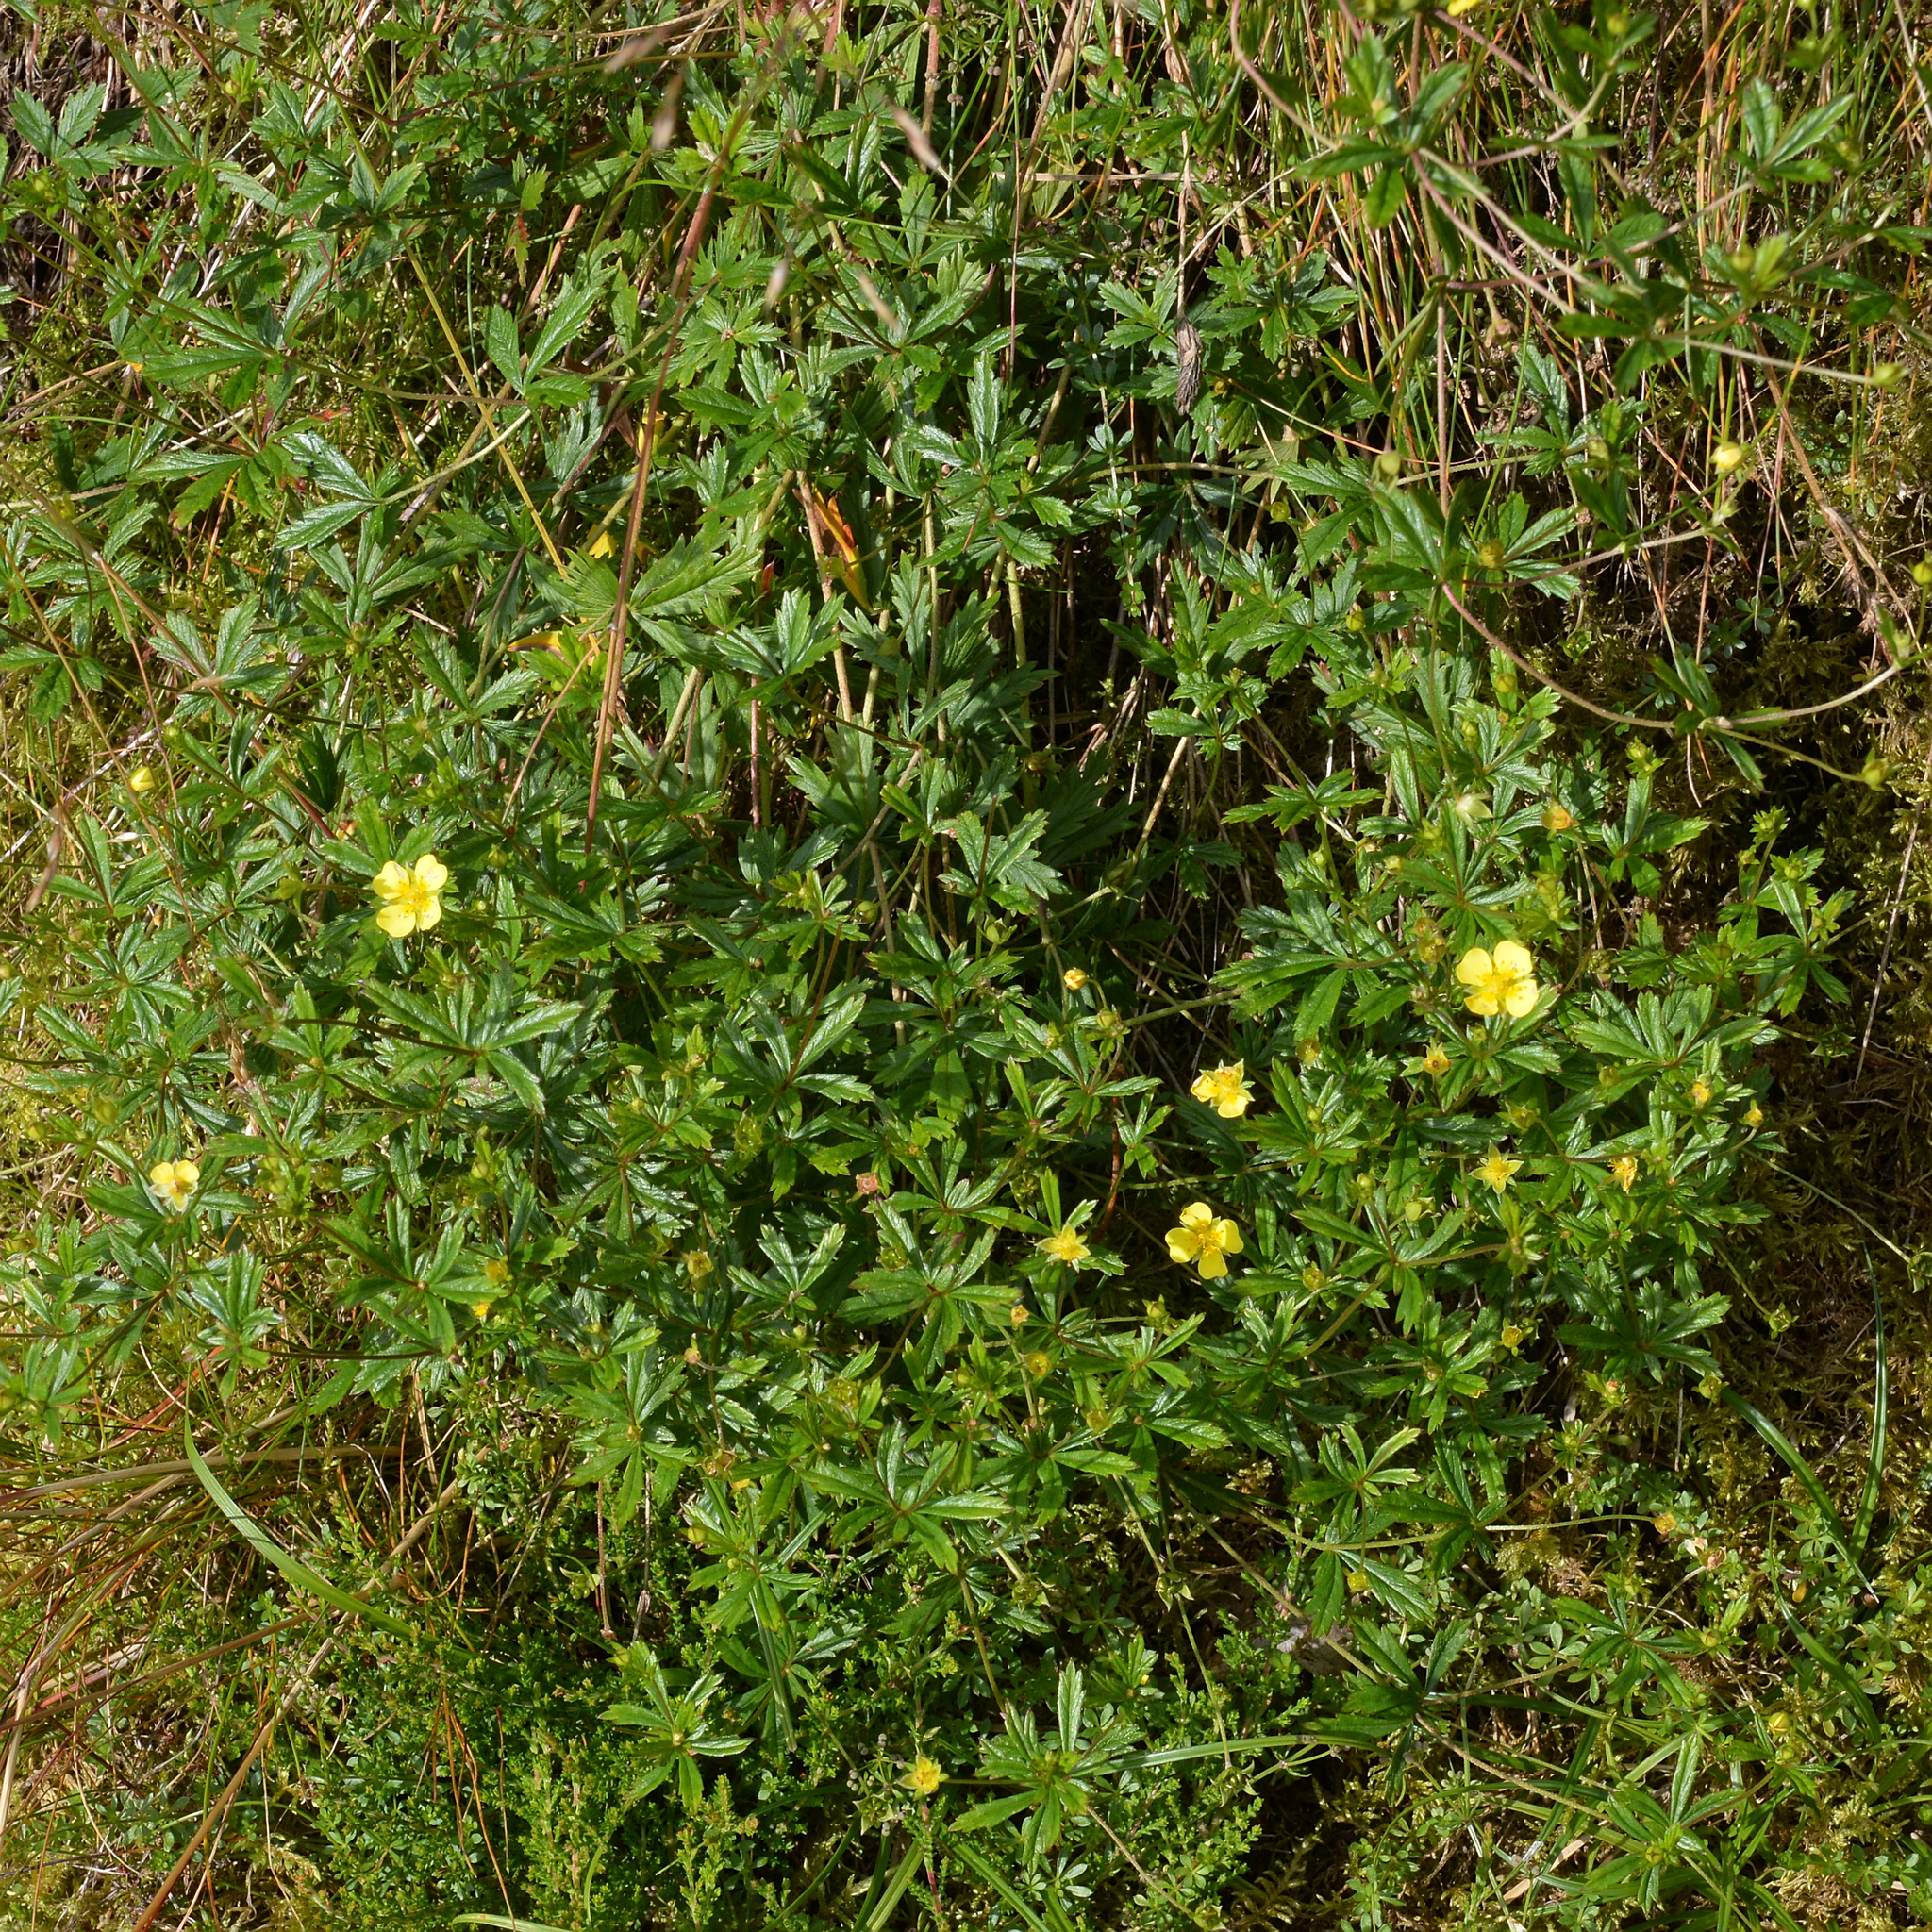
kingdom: Plantae
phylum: Tracheophyta
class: Magnoliopsida
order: Rosales
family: Rosaceae
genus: Potentilla
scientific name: Potentilla erecta
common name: Tormentil
